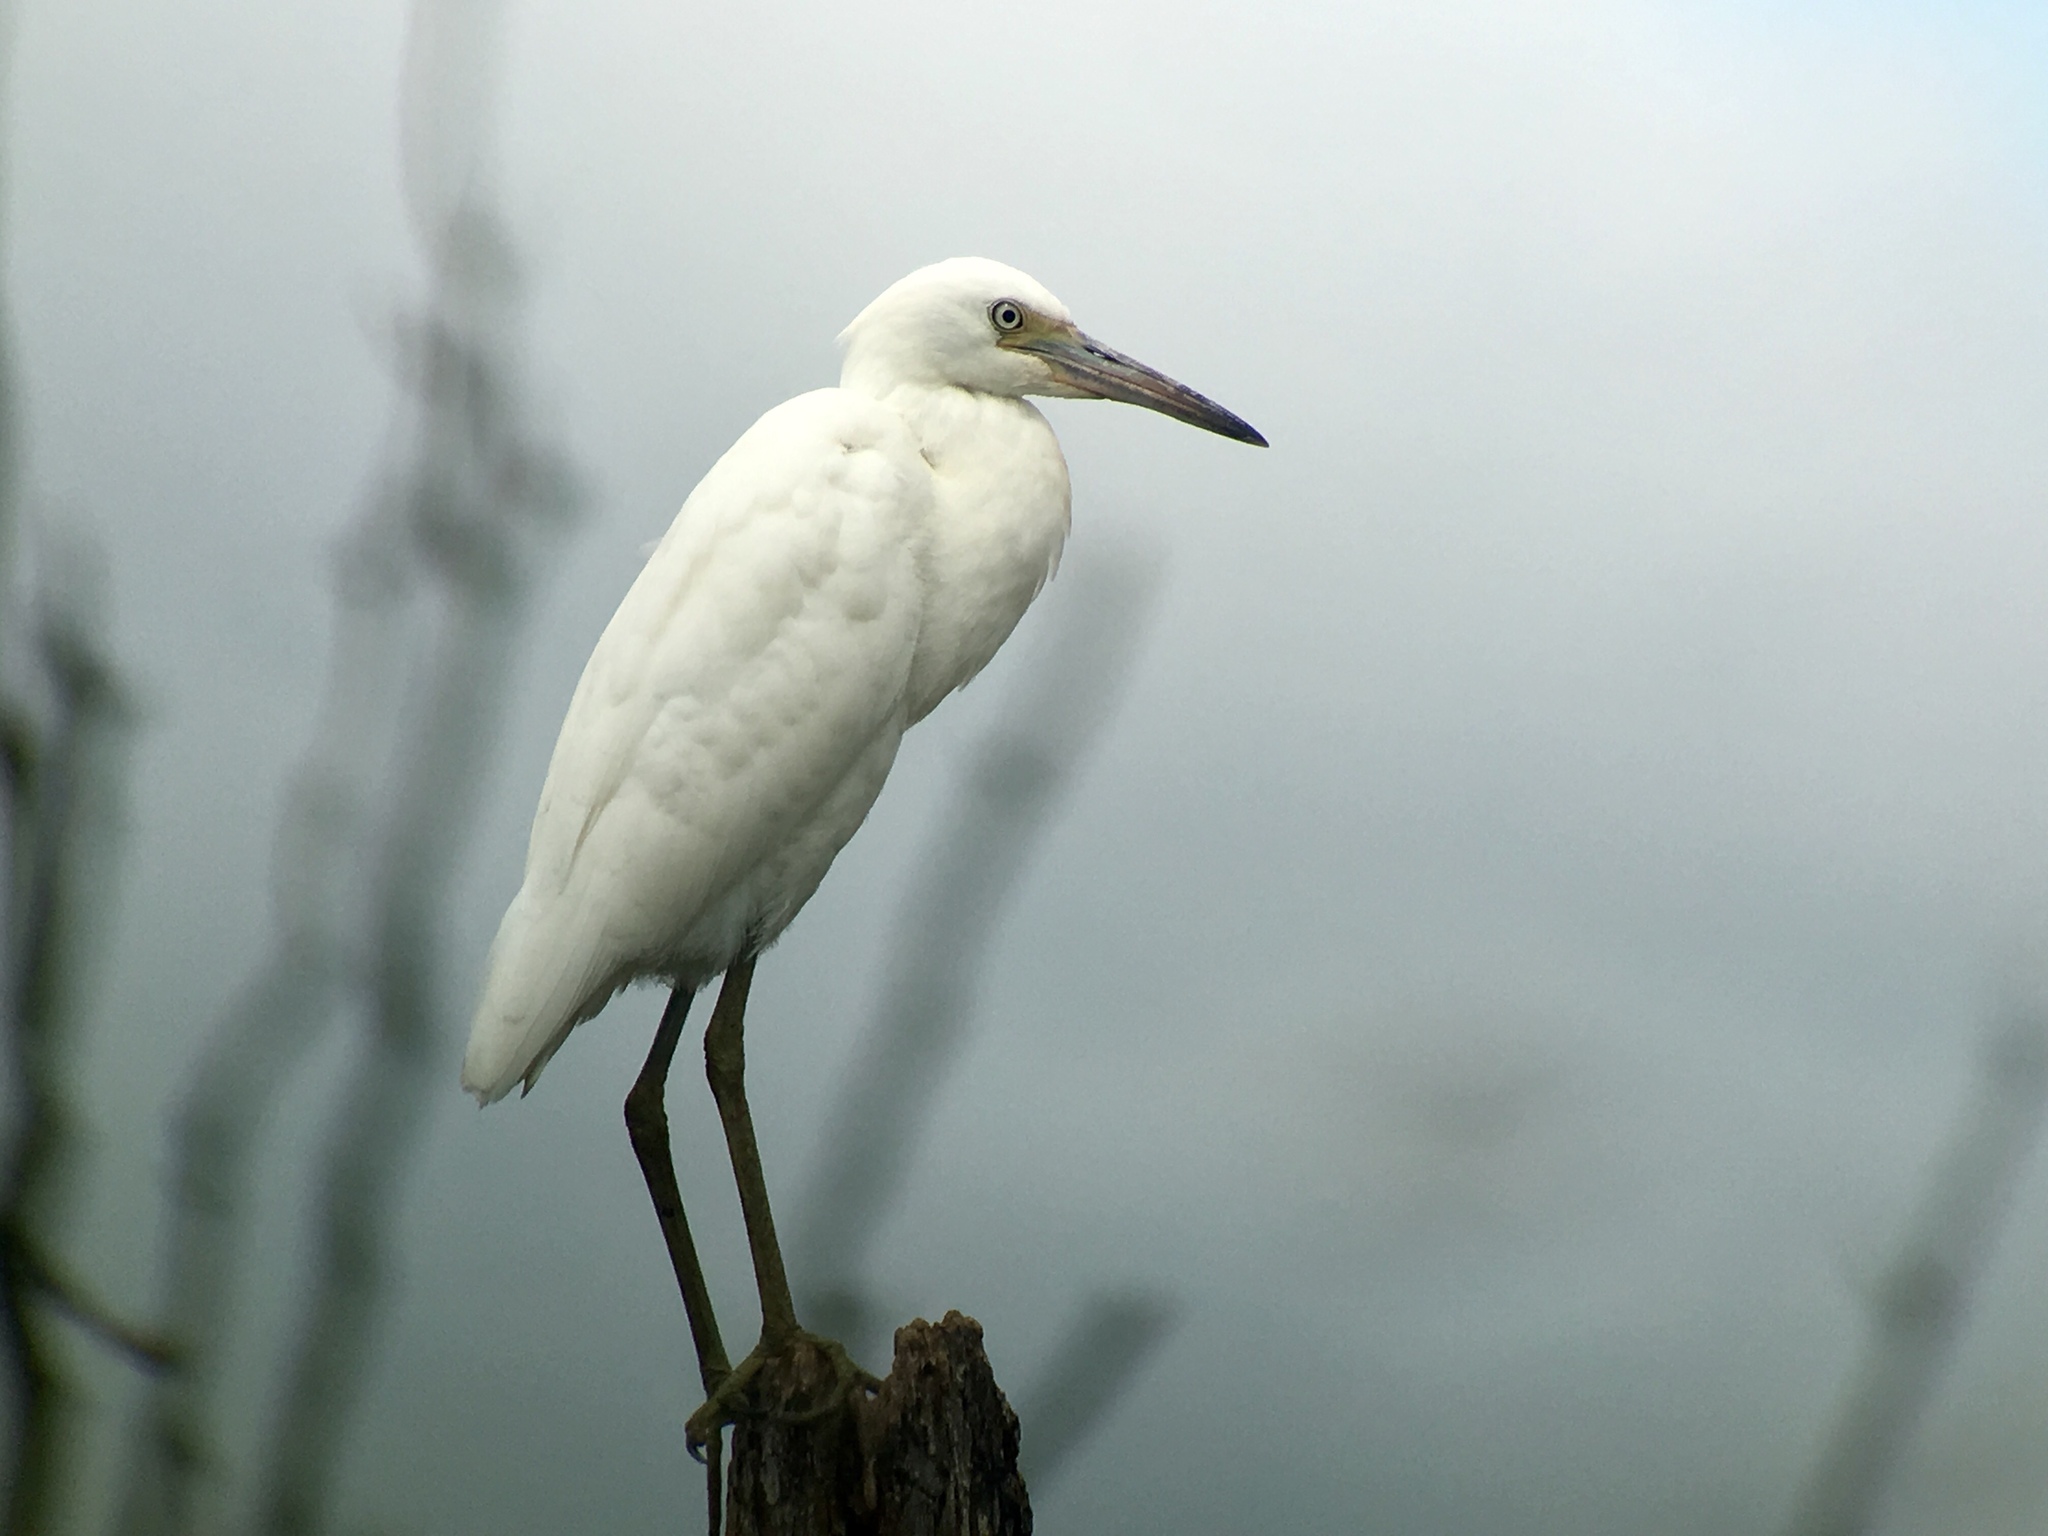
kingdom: Animalia
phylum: Chordata
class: Aves
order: Pelecaniformes
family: Ardeidae
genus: Egretta
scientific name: Egretta caerulea
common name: Little blue heron
